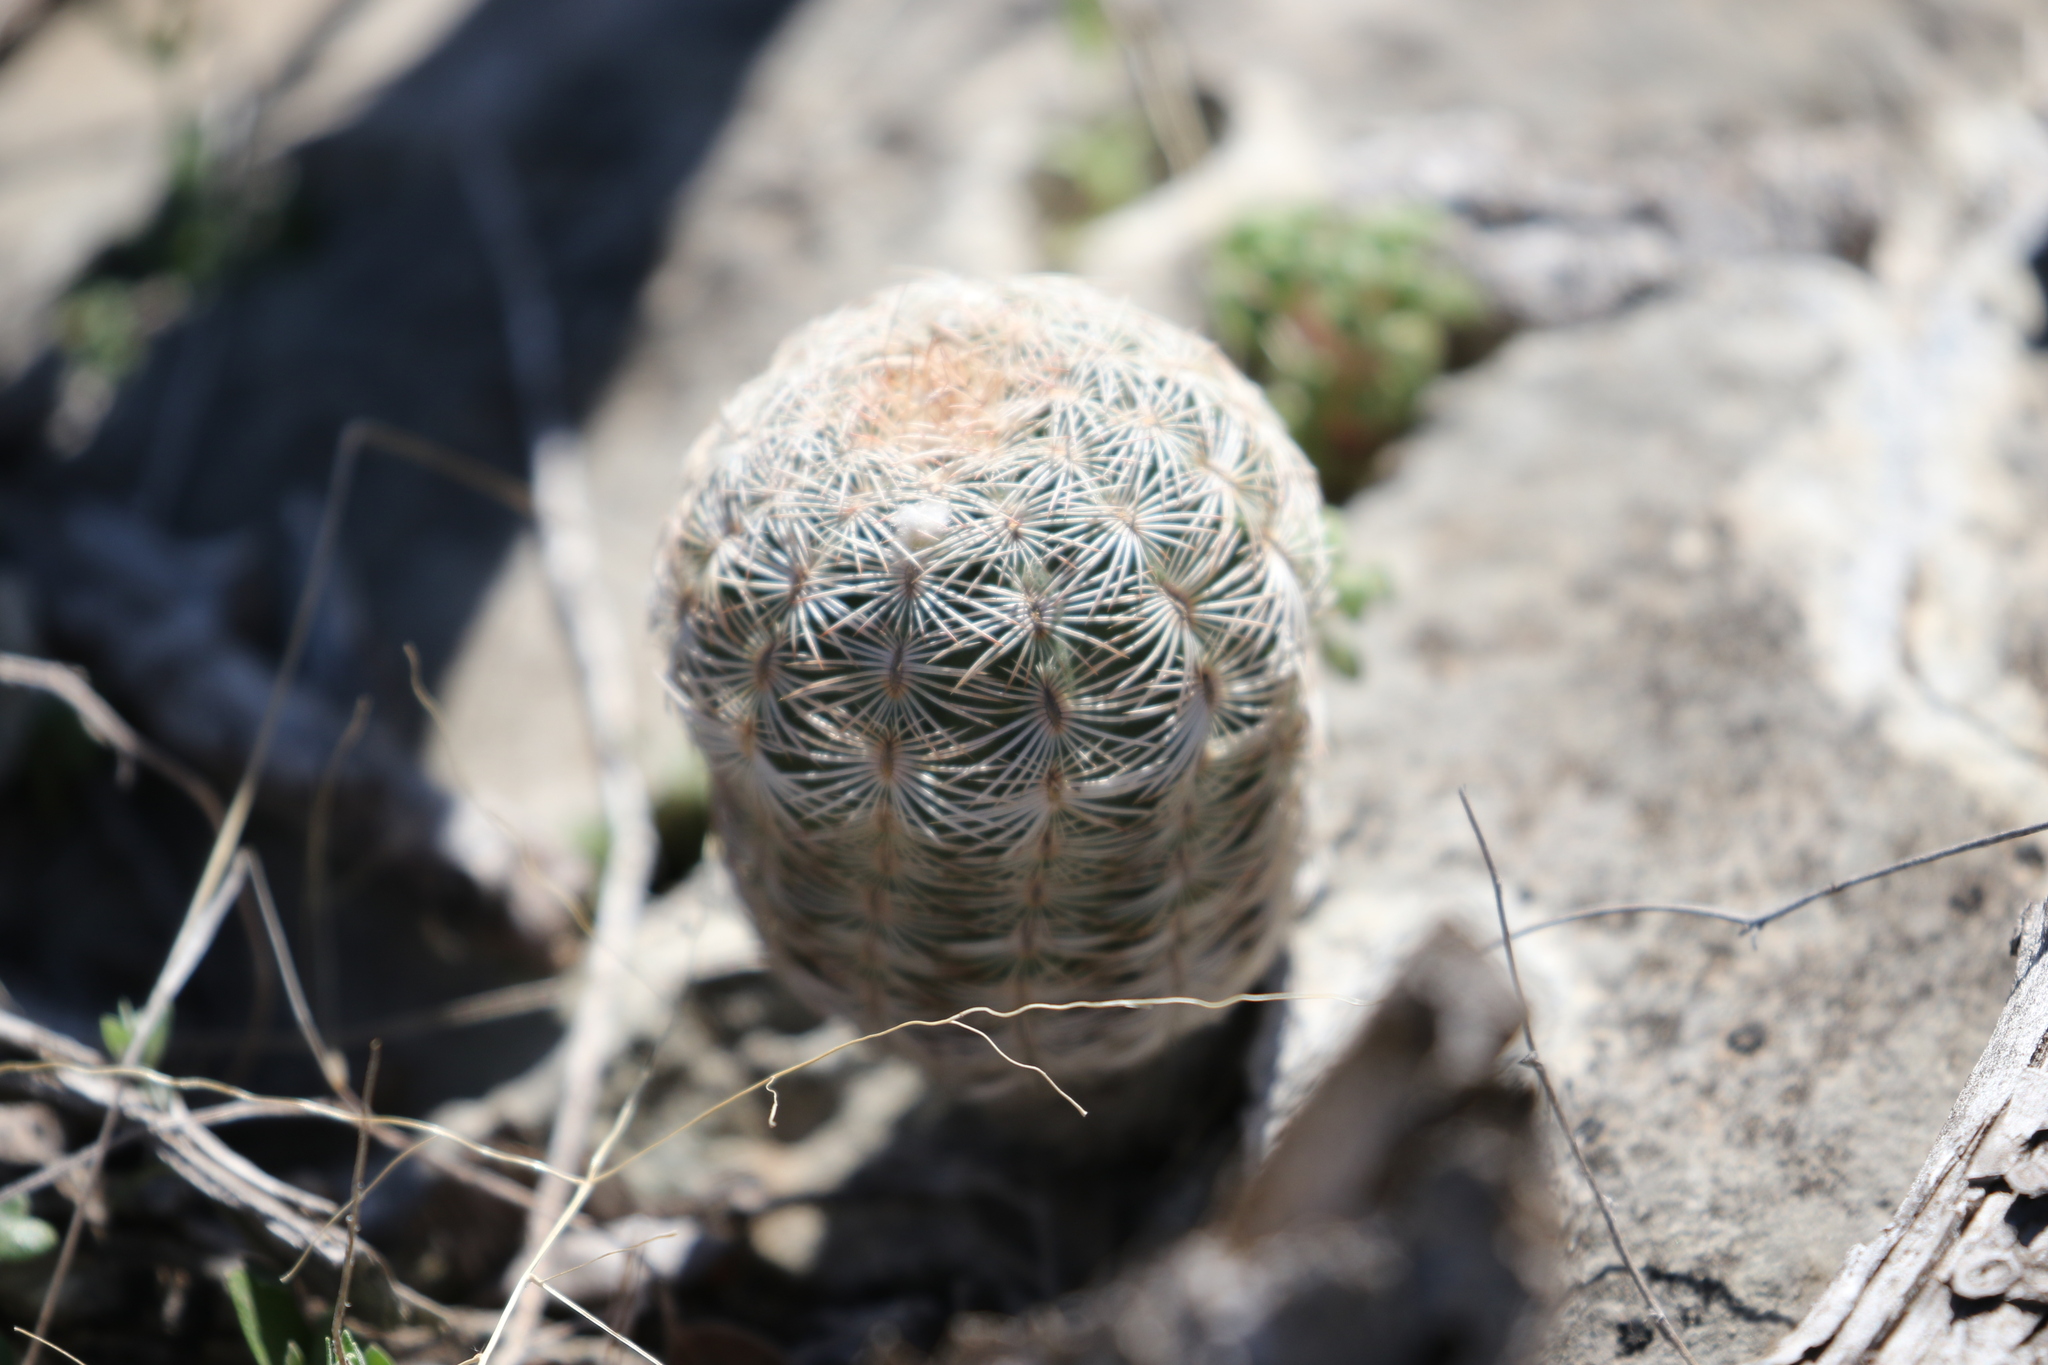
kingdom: Plantae
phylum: Tracheophyta
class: Magnoliopsida
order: Caryophyllales
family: Cactaceae
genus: Echinocereus
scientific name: Echinocereus reichenbachii
